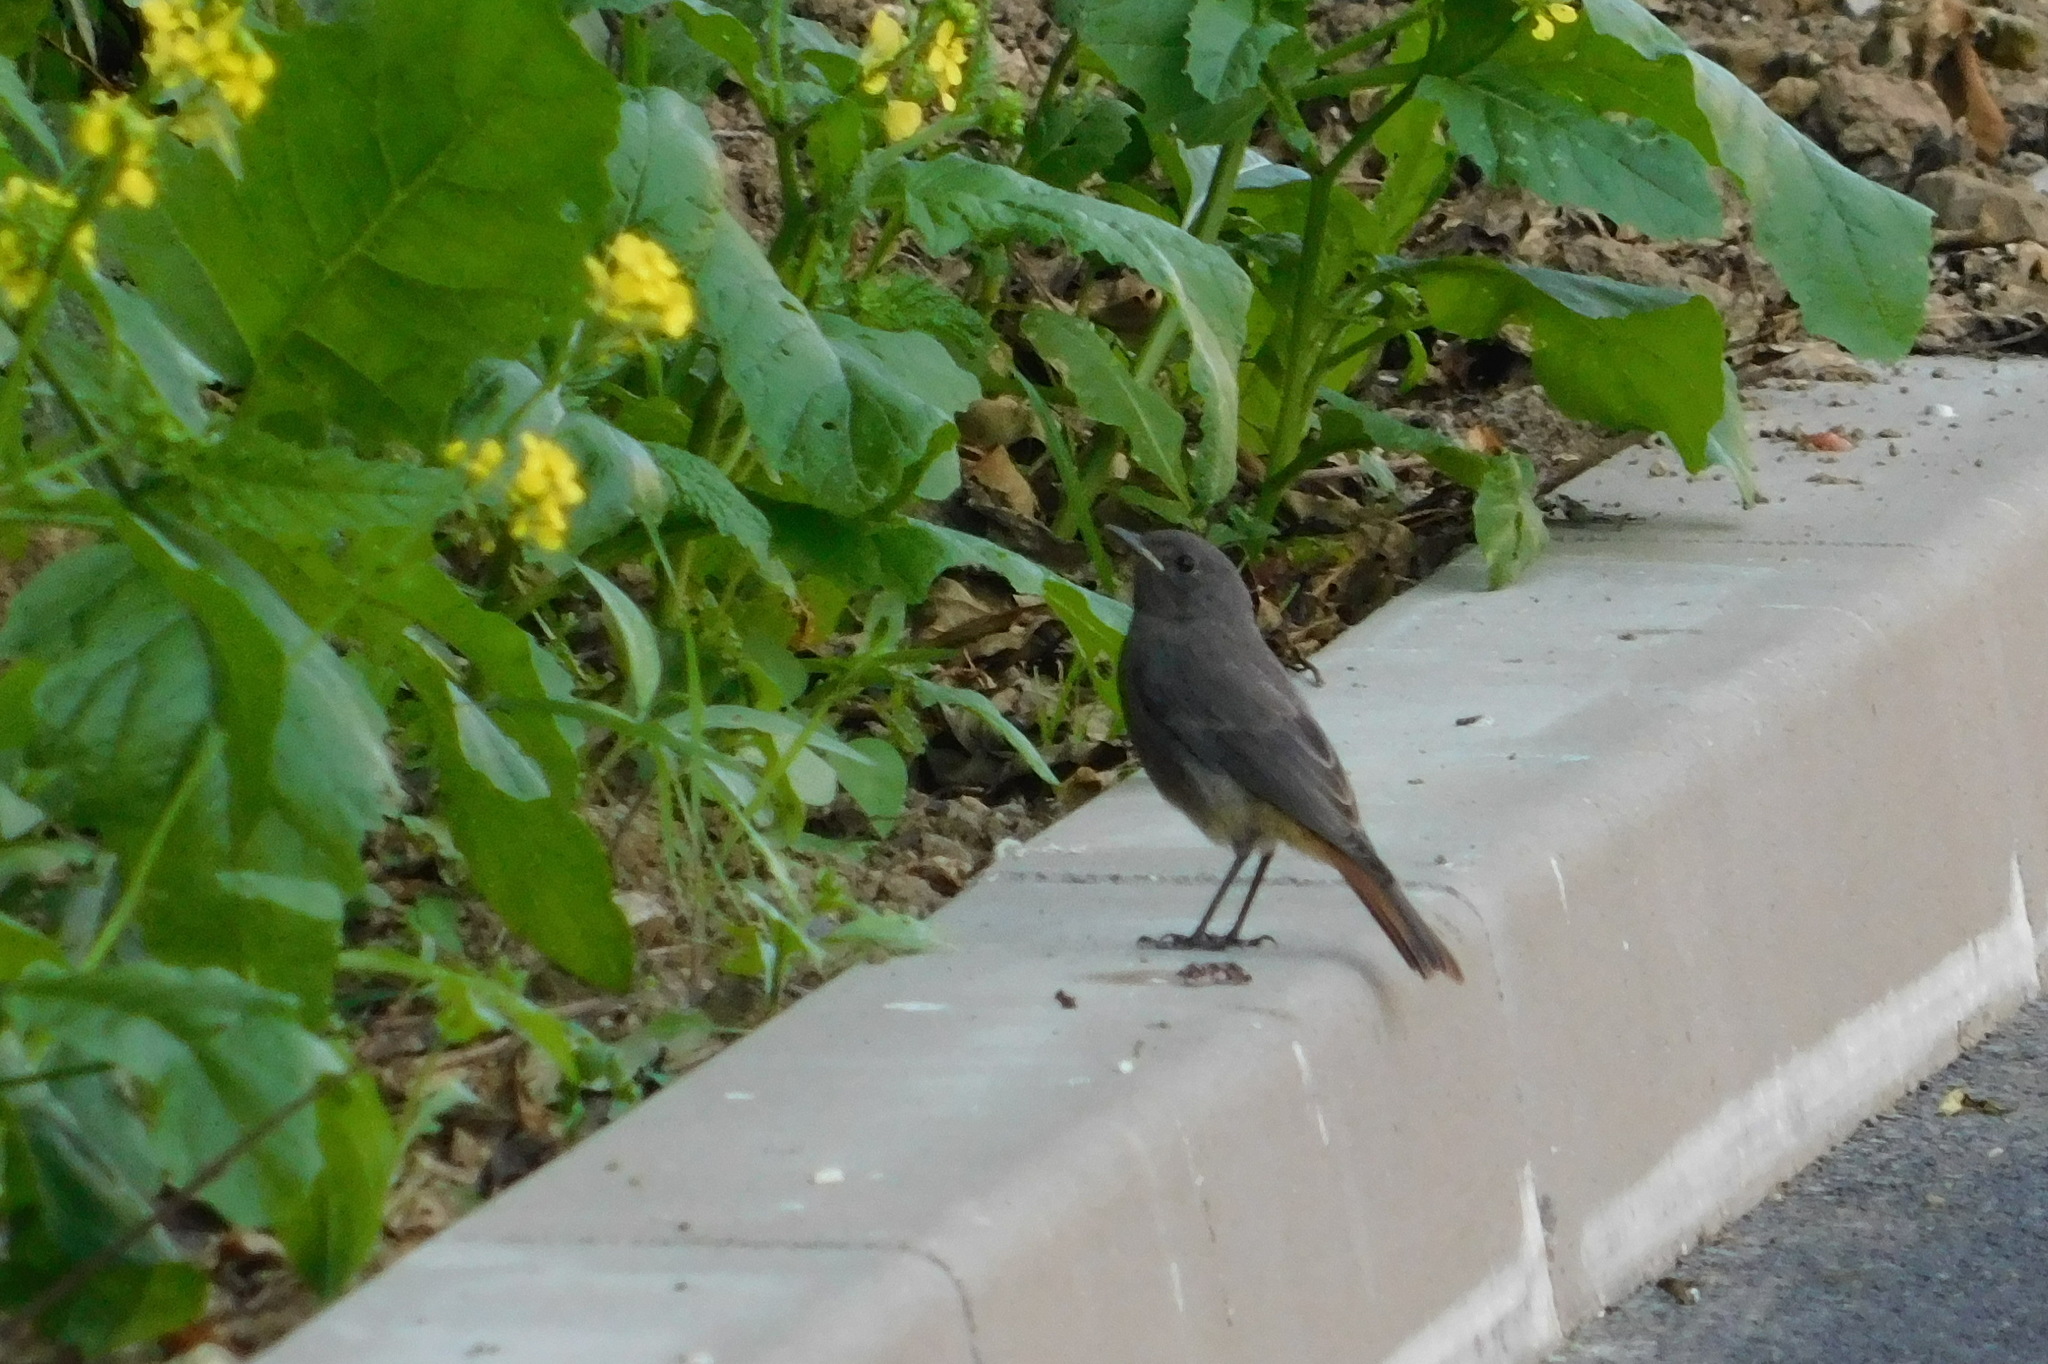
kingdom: Animalia
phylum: Chordata
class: Aves
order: Passeriformes
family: Muscicapidae
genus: Phoenicurus
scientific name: Phoenicurus ochruros
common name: Black redstart
